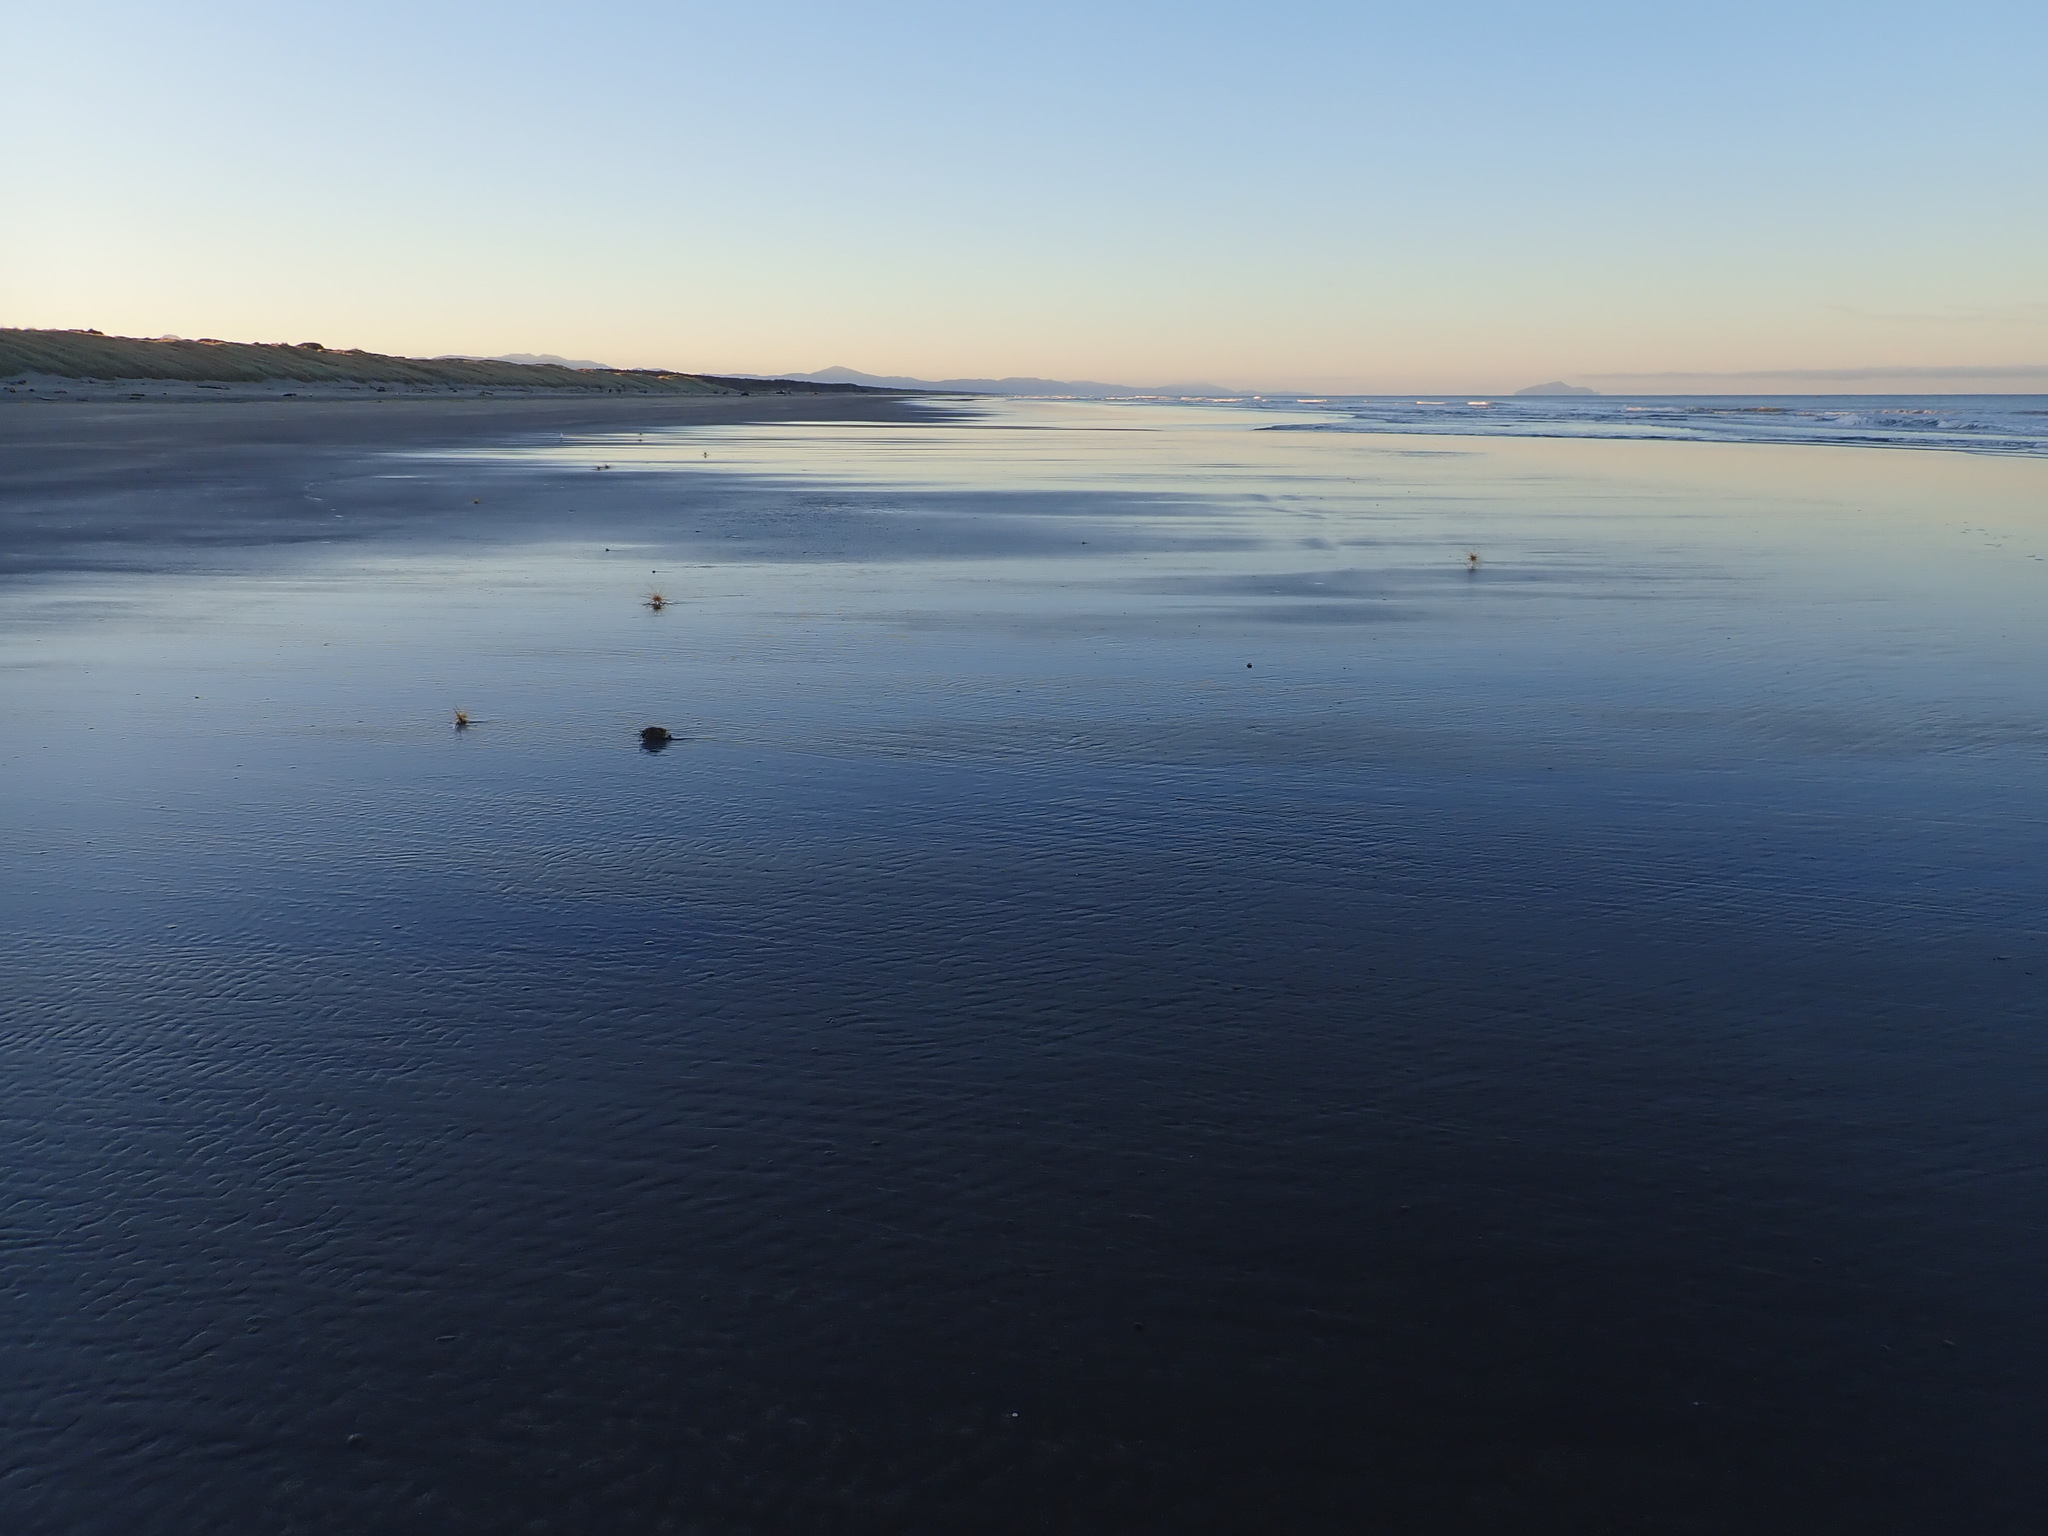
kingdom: Plantae
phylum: Tracheophyta
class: Liliopsida
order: Poales
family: Poaceae
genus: Spinifex
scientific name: Spinifex sericeus
